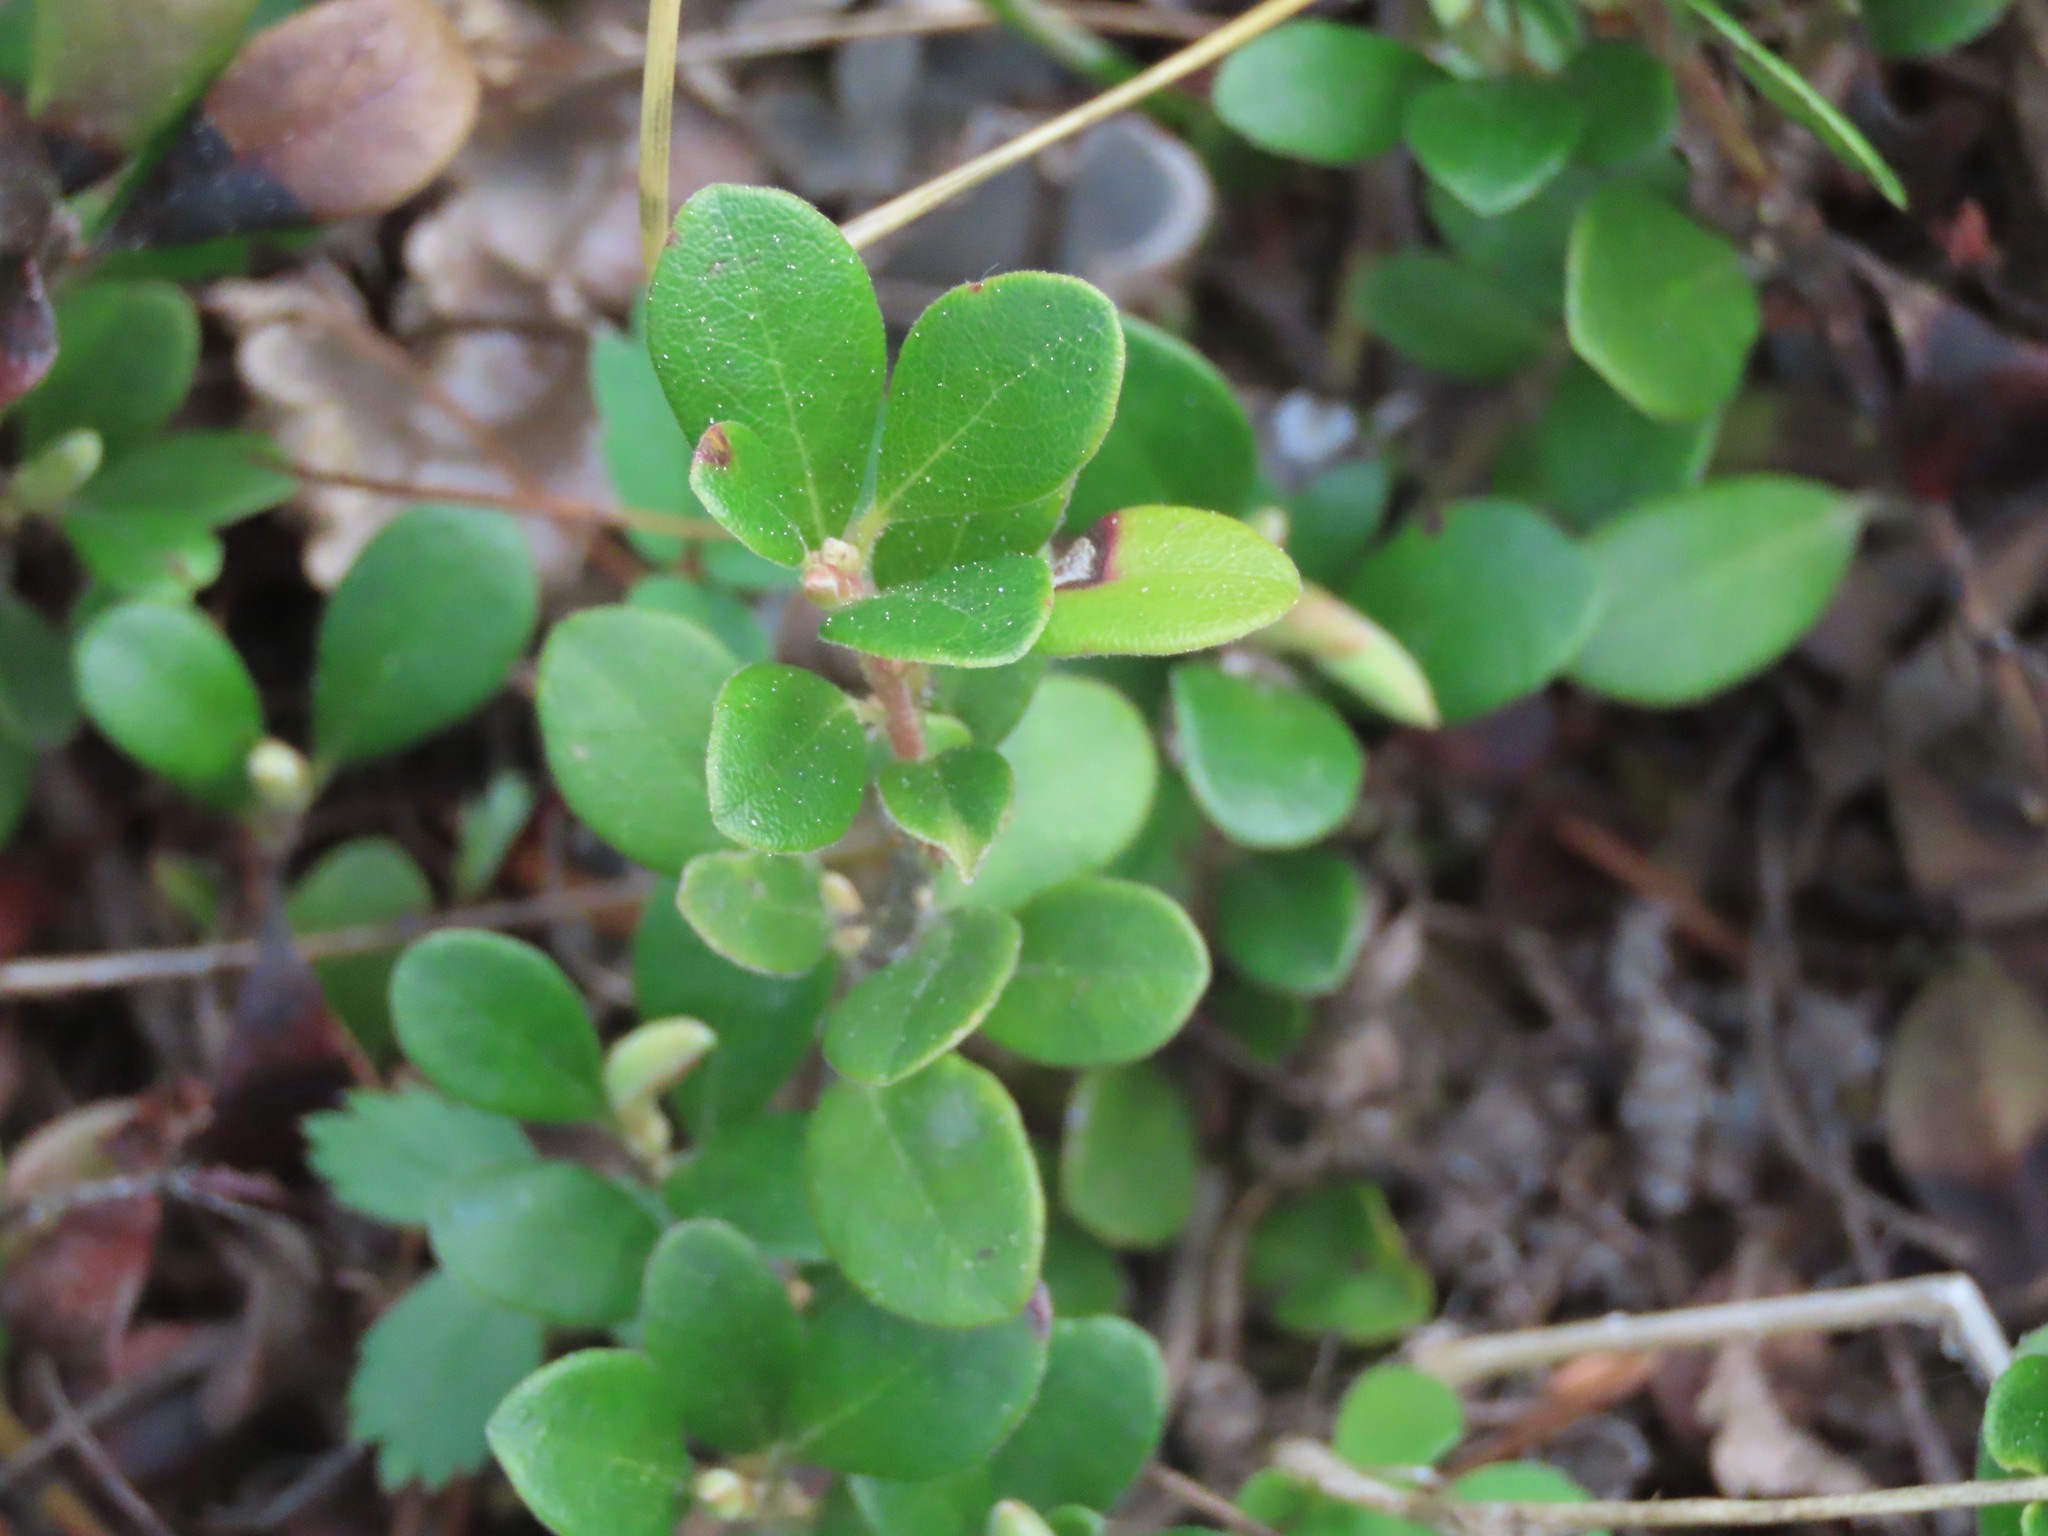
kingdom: Plantae
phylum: Tracheophyta
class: Magnoliopsida
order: Ericales
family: Ericaceae
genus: Arctostaphylos
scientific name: Arctostaphylos uva-ursi
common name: Bearberry
